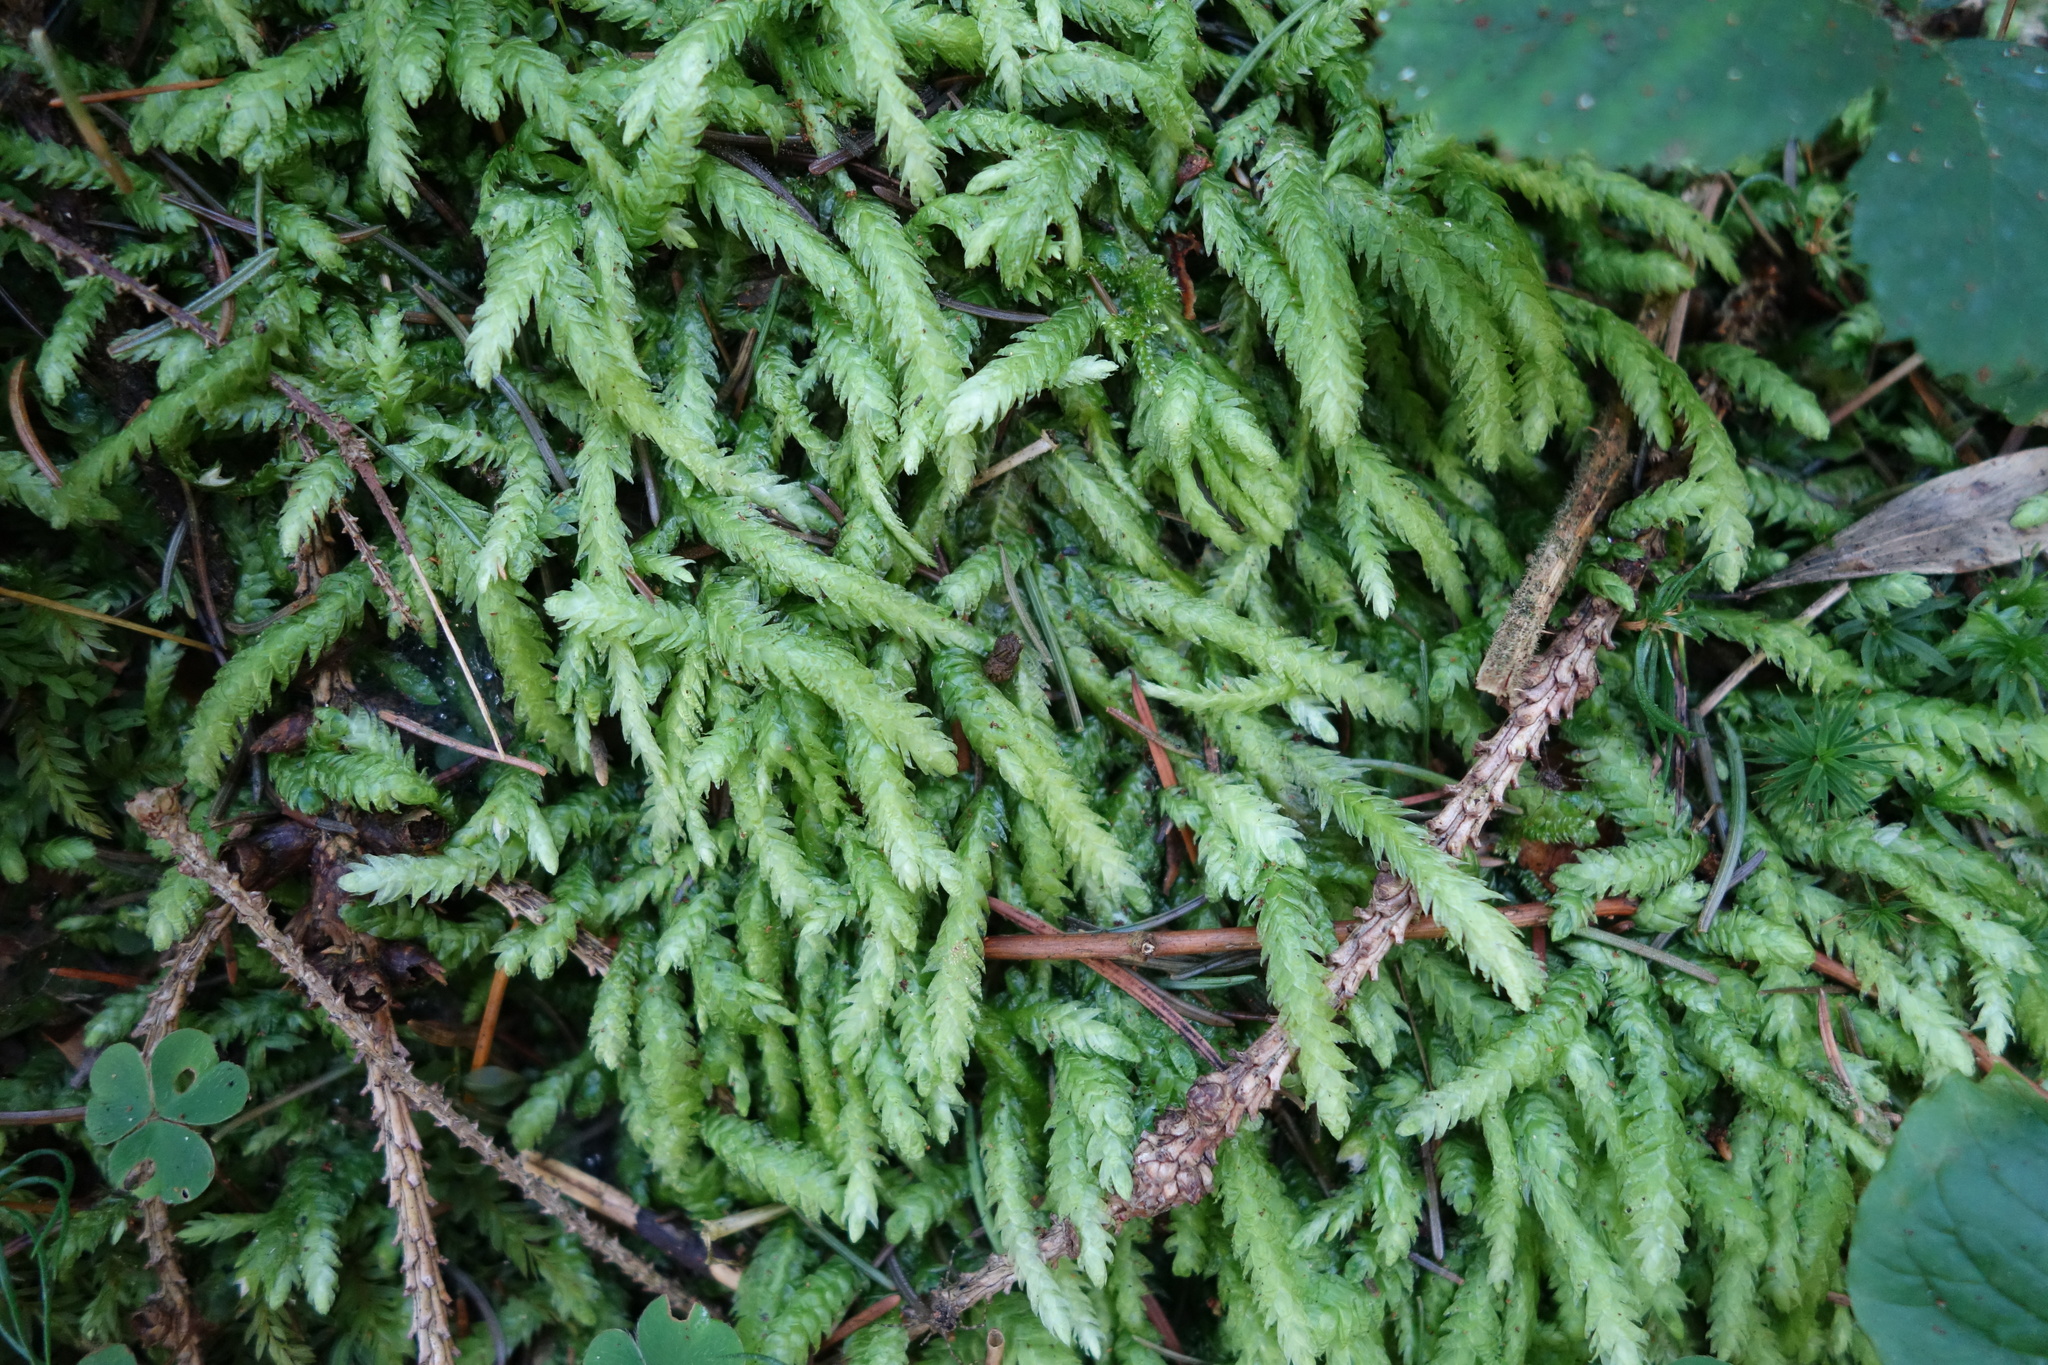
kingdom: Plantae
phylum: Bryophyta
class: Bryopsida
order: Hypnales
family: Plagiotheciaceae
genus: Plagiothecium
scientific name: Plagiothecium undulatum
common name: Waved silk-moss
